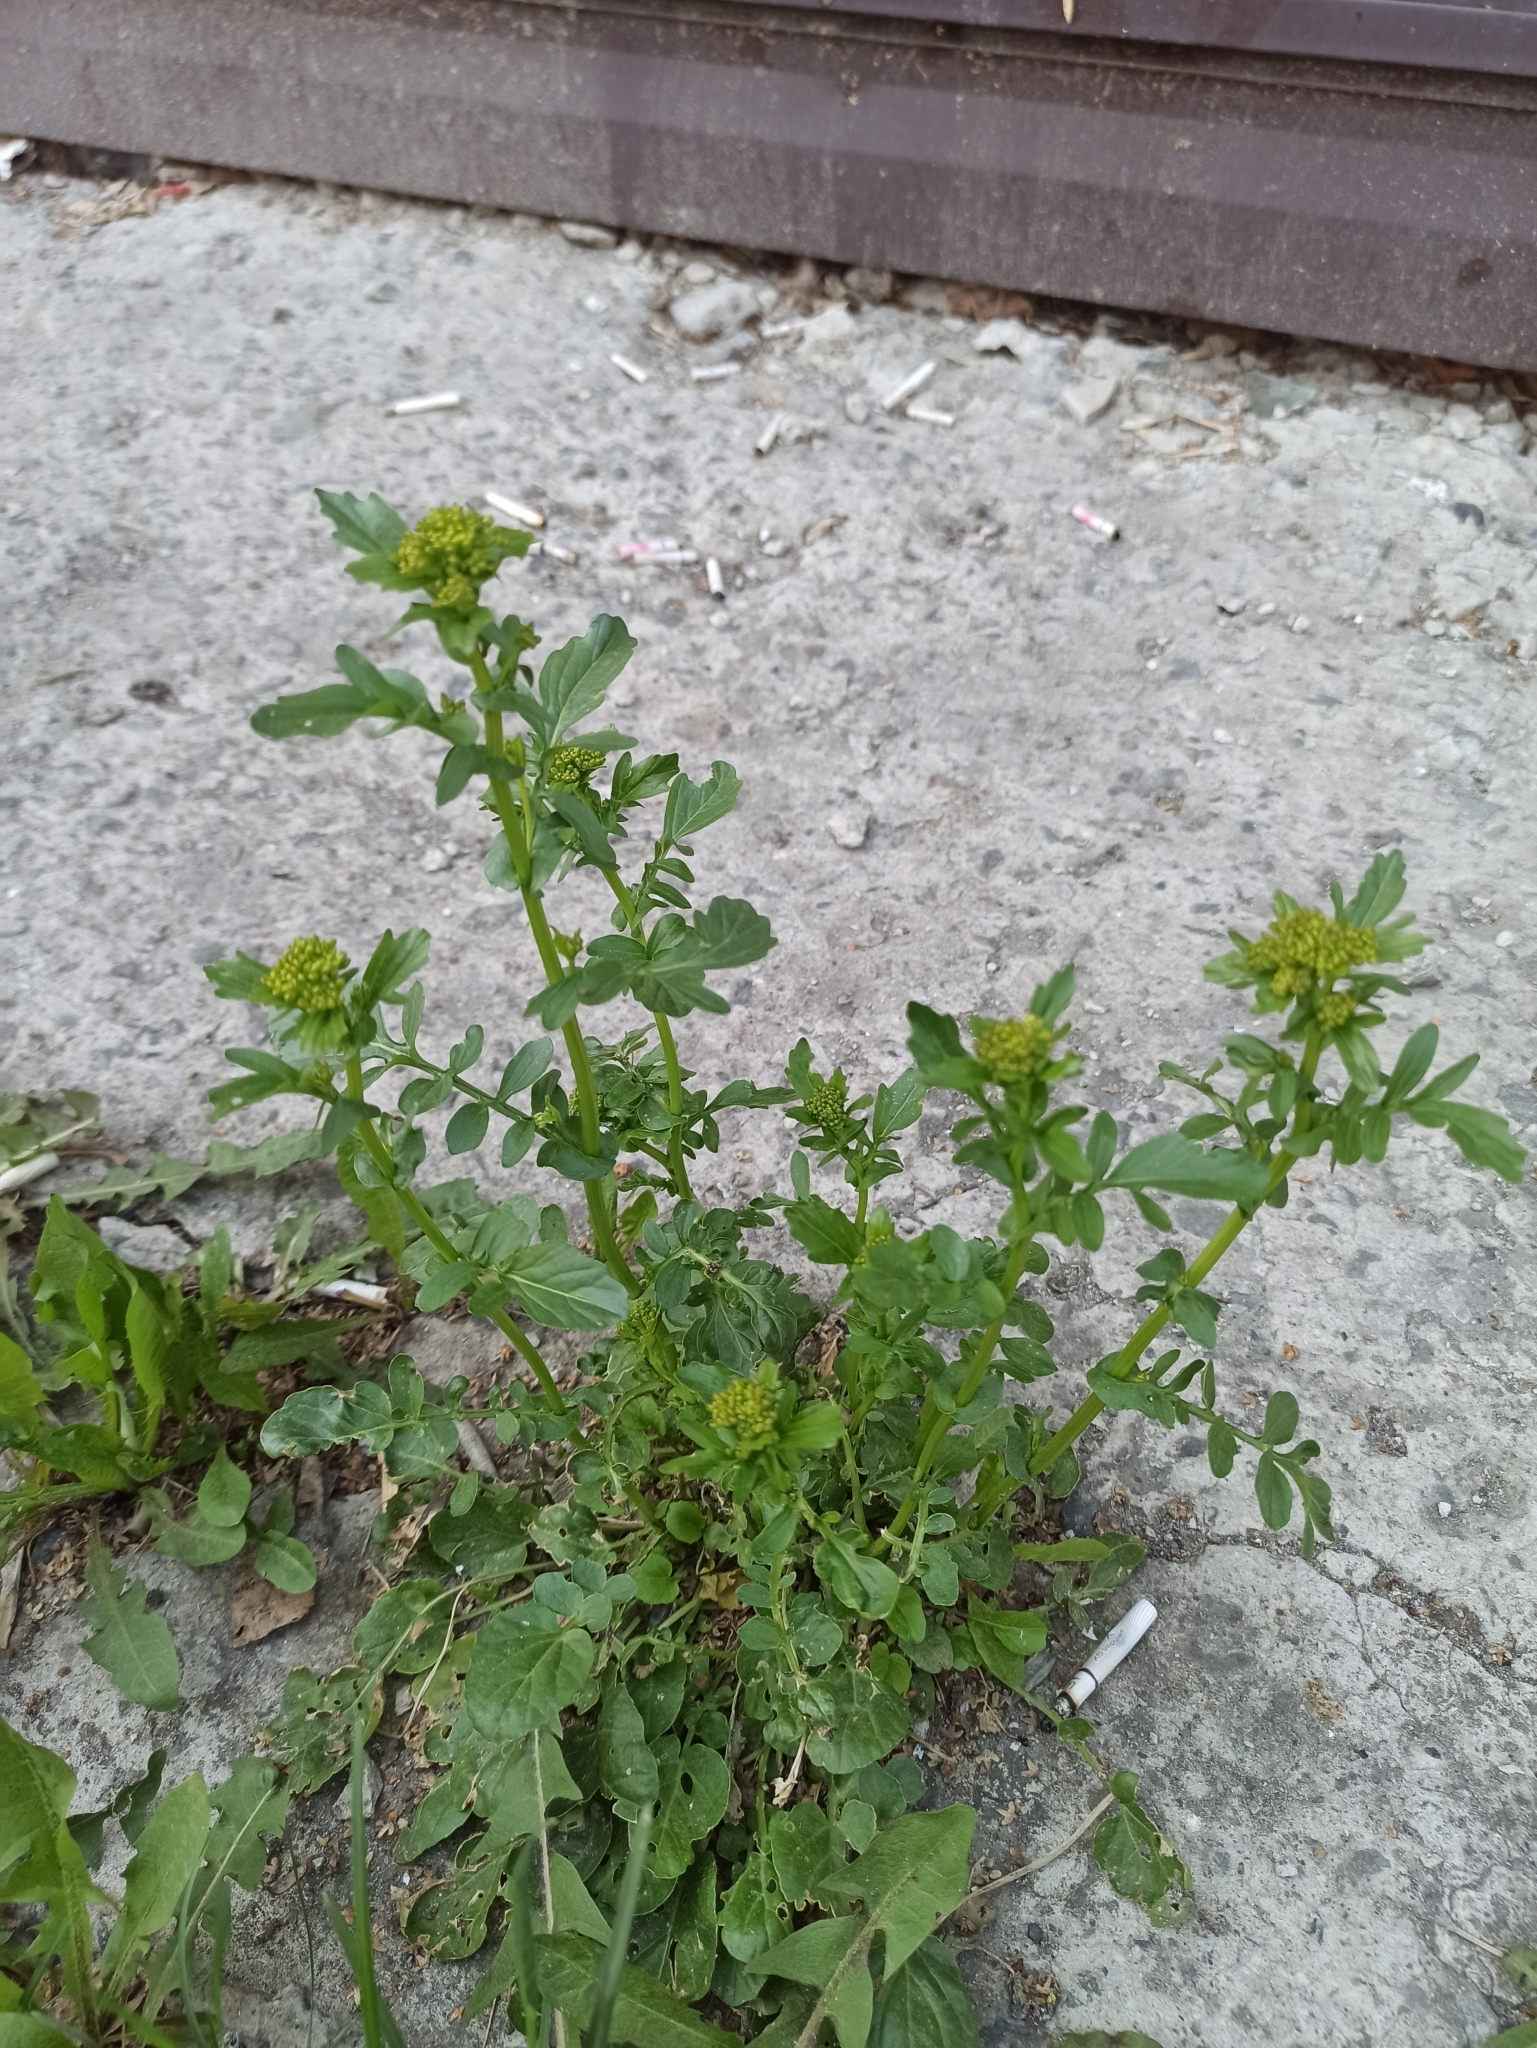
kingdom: Plantae
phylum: Tracheophyta
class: Magnoliopsida
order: Brassicales
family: Brassicaceae
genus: Barbarea
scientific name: Barbarea vulgaris
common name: Cressy-greens
